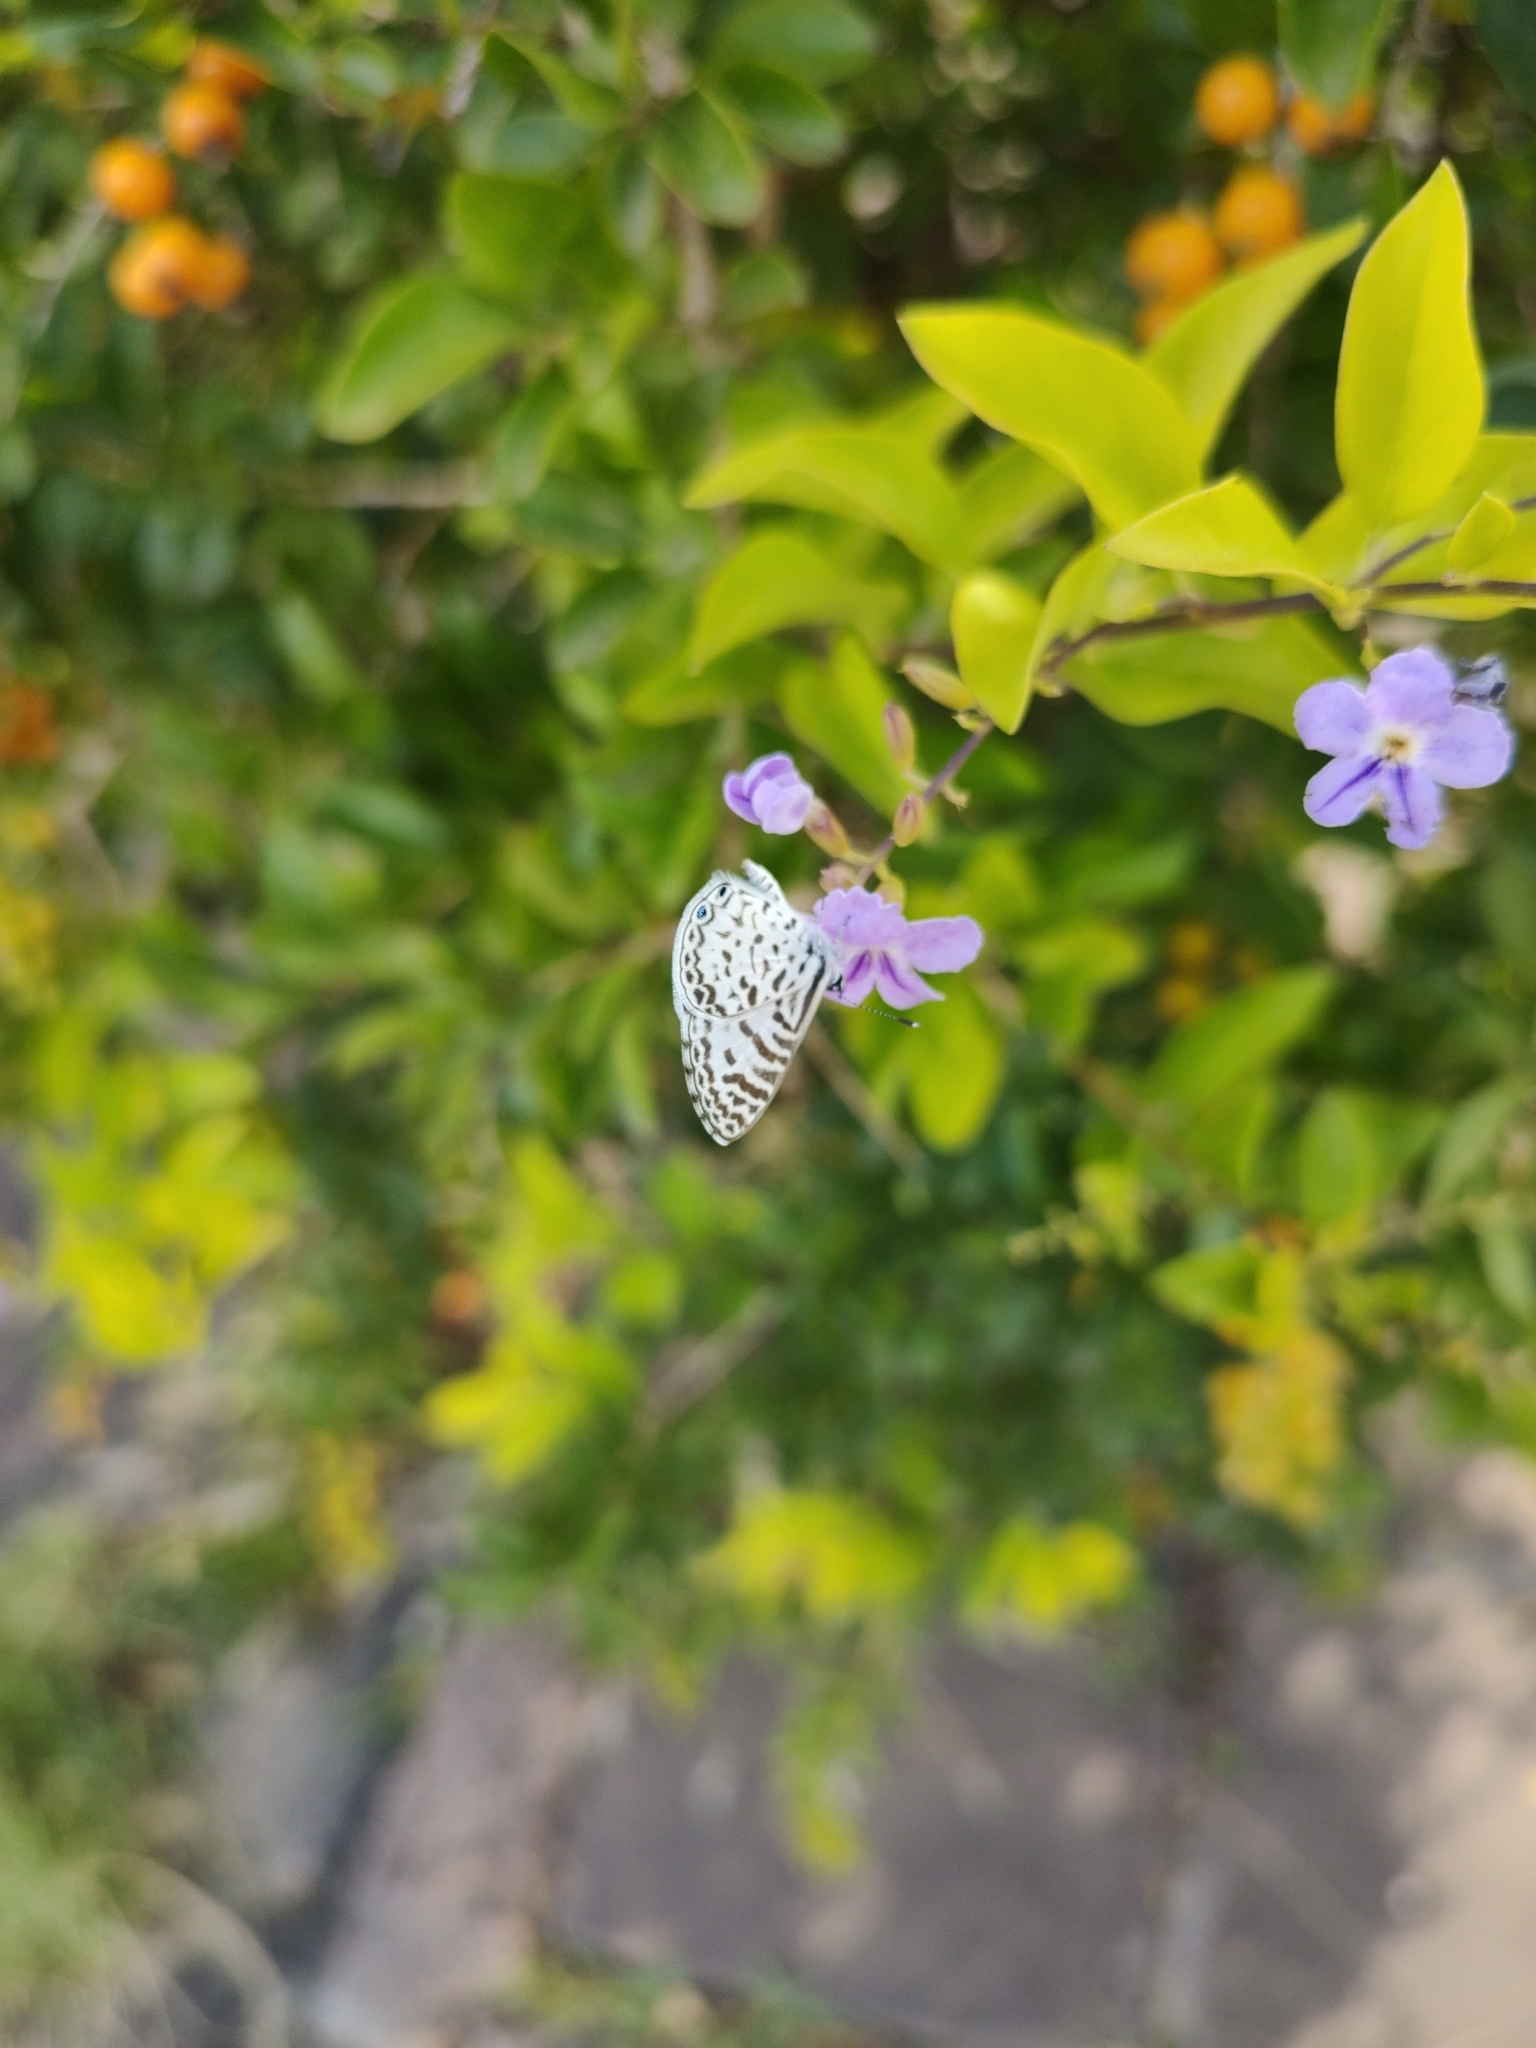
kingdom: Animalia
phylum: Arthropoda
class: Insecta
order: Lepidoptera
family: Lycaenidae
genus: Leptotes
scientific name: Leptotes cassius
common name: Cassius blue
